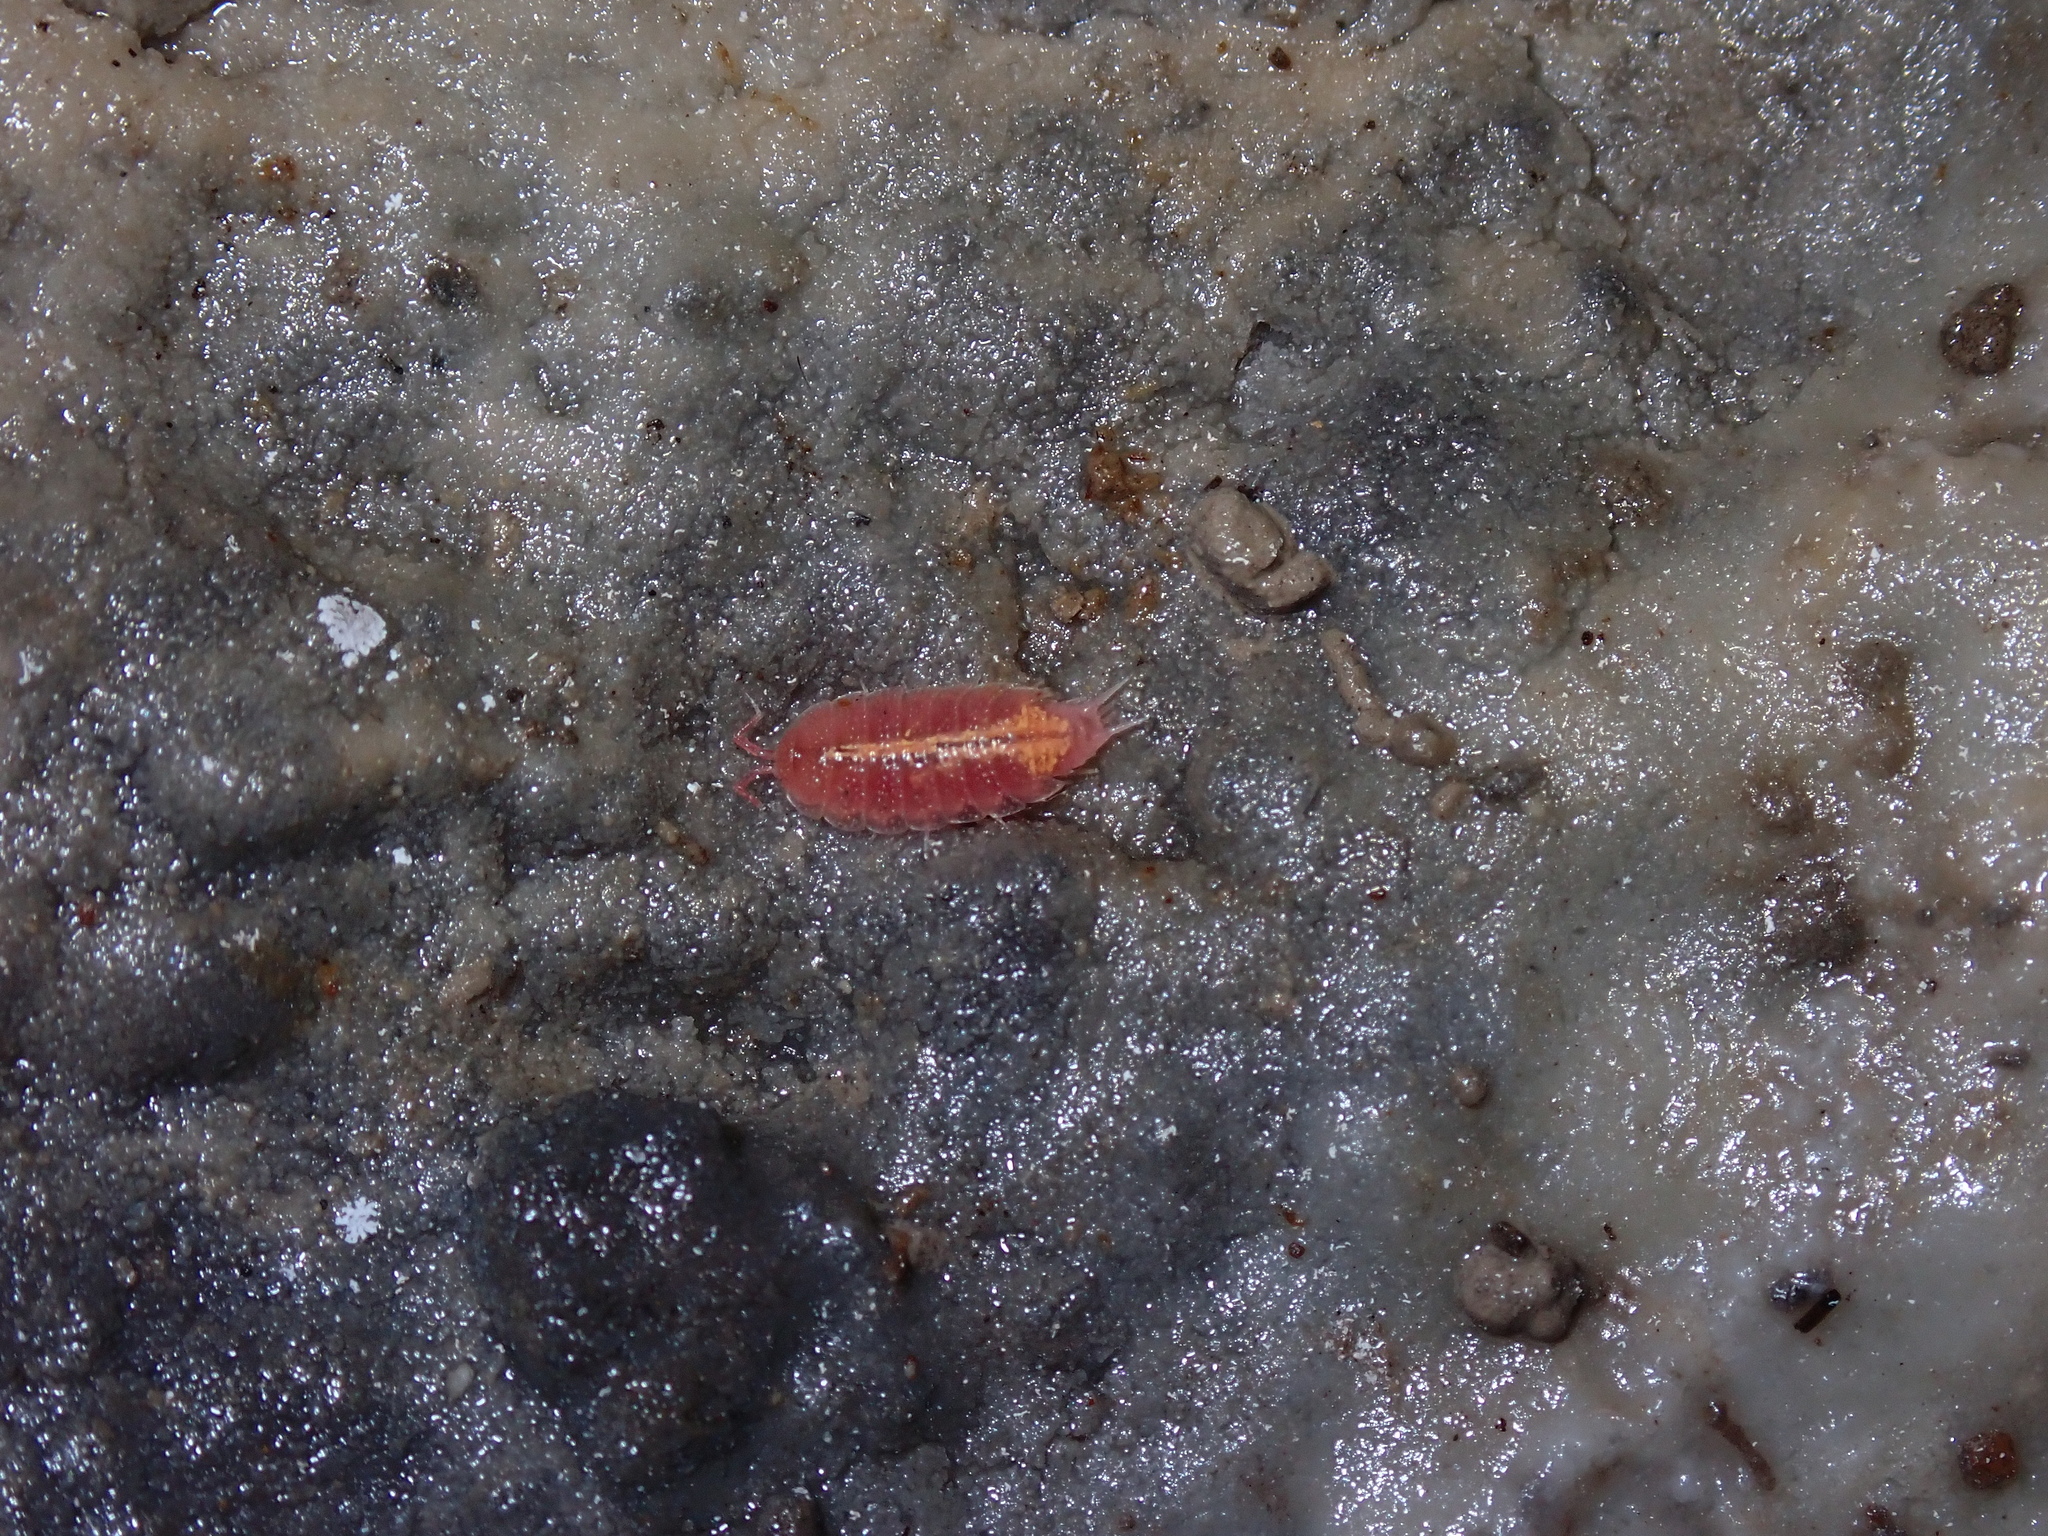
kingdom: Animalia
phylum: Arthropoda
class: Malacostraca
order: Isopoda
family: Trichoniscidae
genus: Androniscus
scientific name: Androniscus dentiger
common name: Rosy woodlouse
